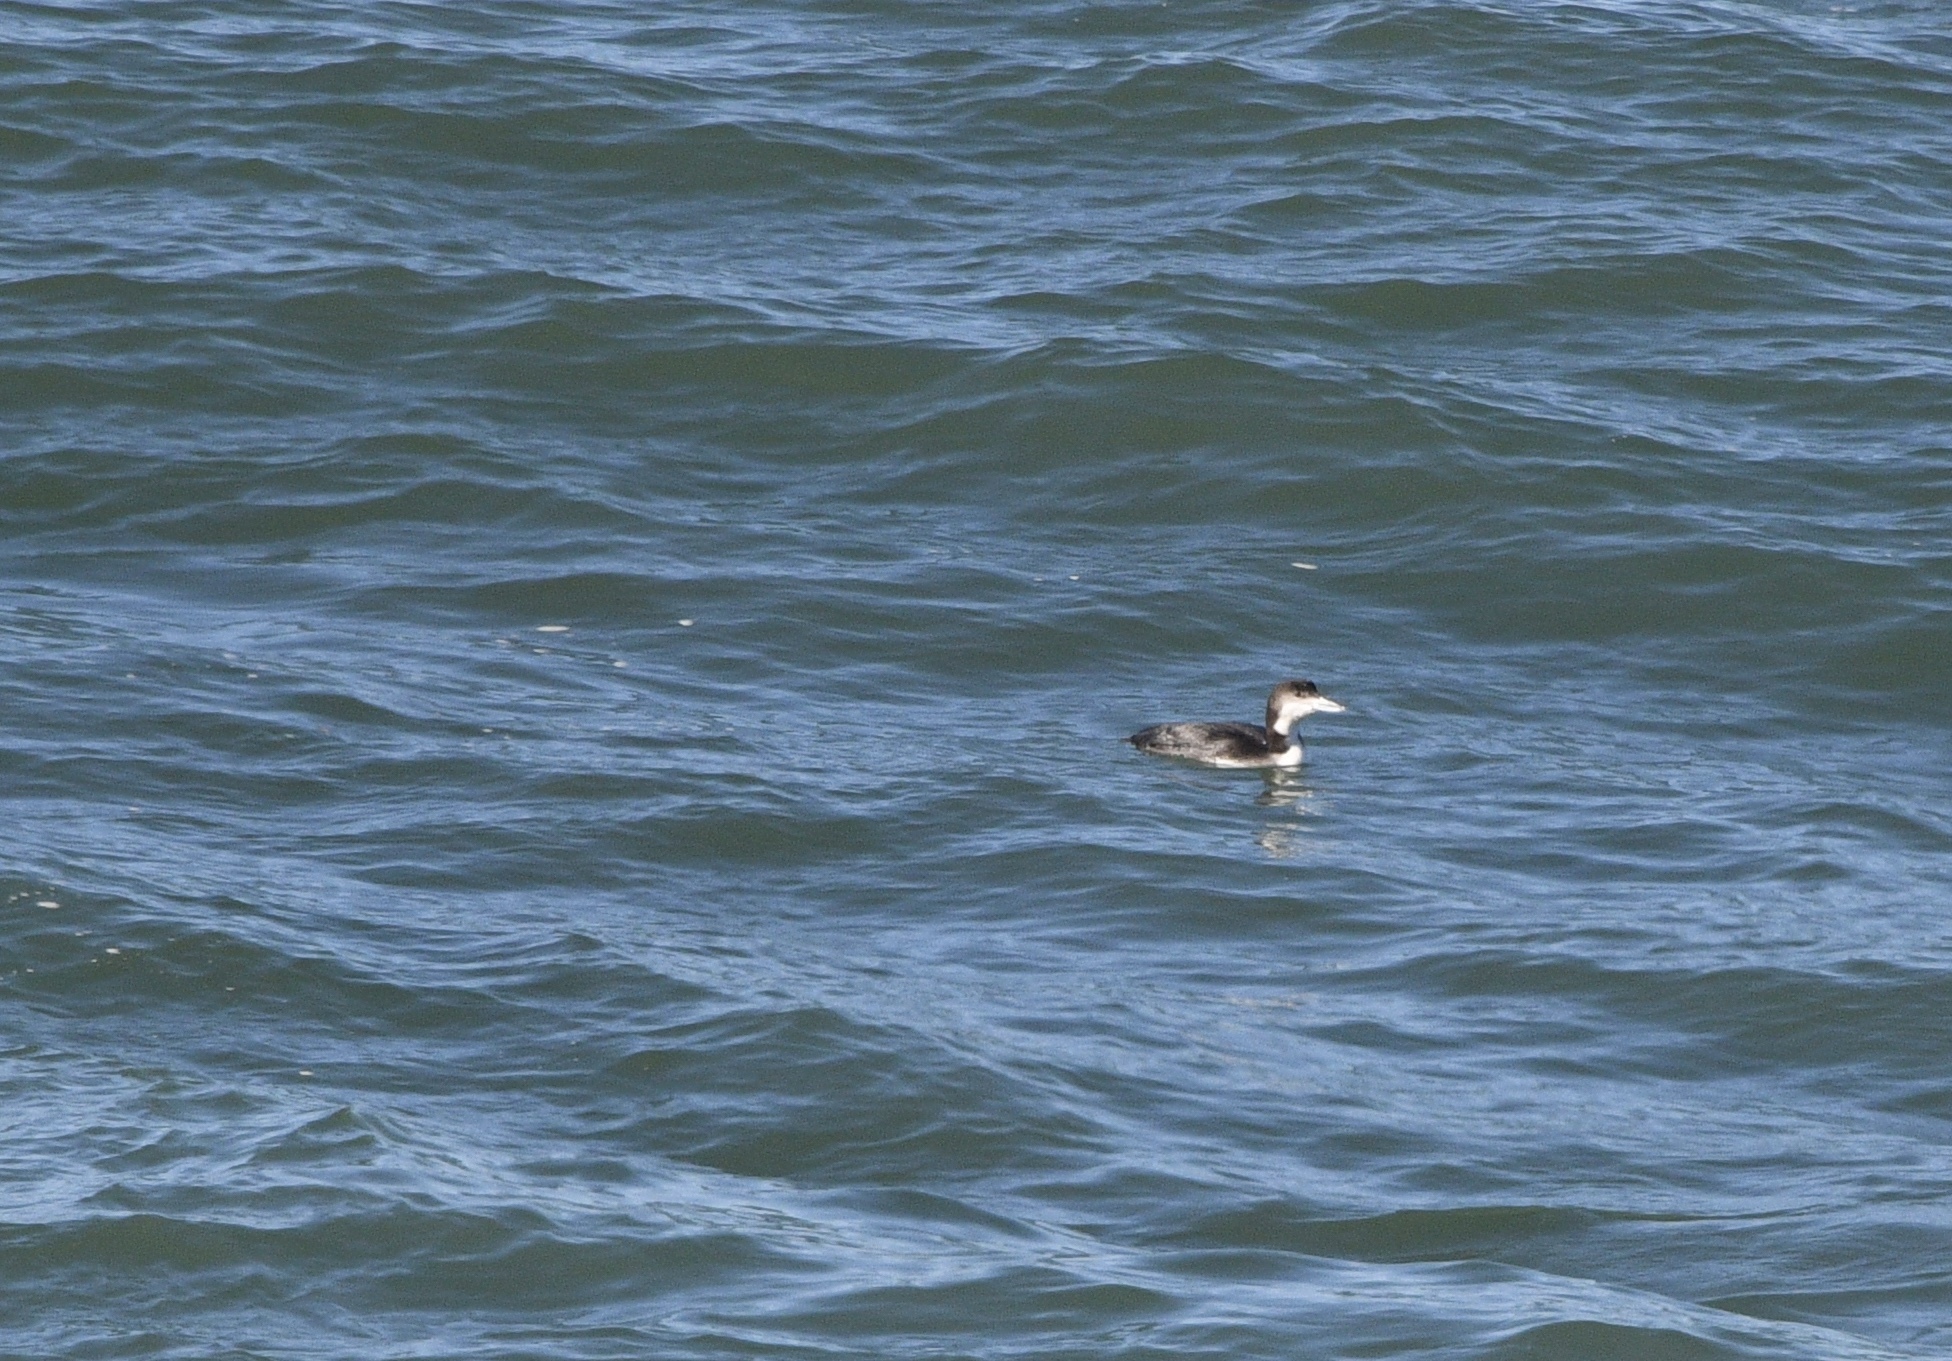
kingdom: Animalia
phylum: Chordata
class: Aves
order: Gaviiformes
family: Gaviidae
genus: Gavia
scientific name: Gavia immer
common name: Common loon
